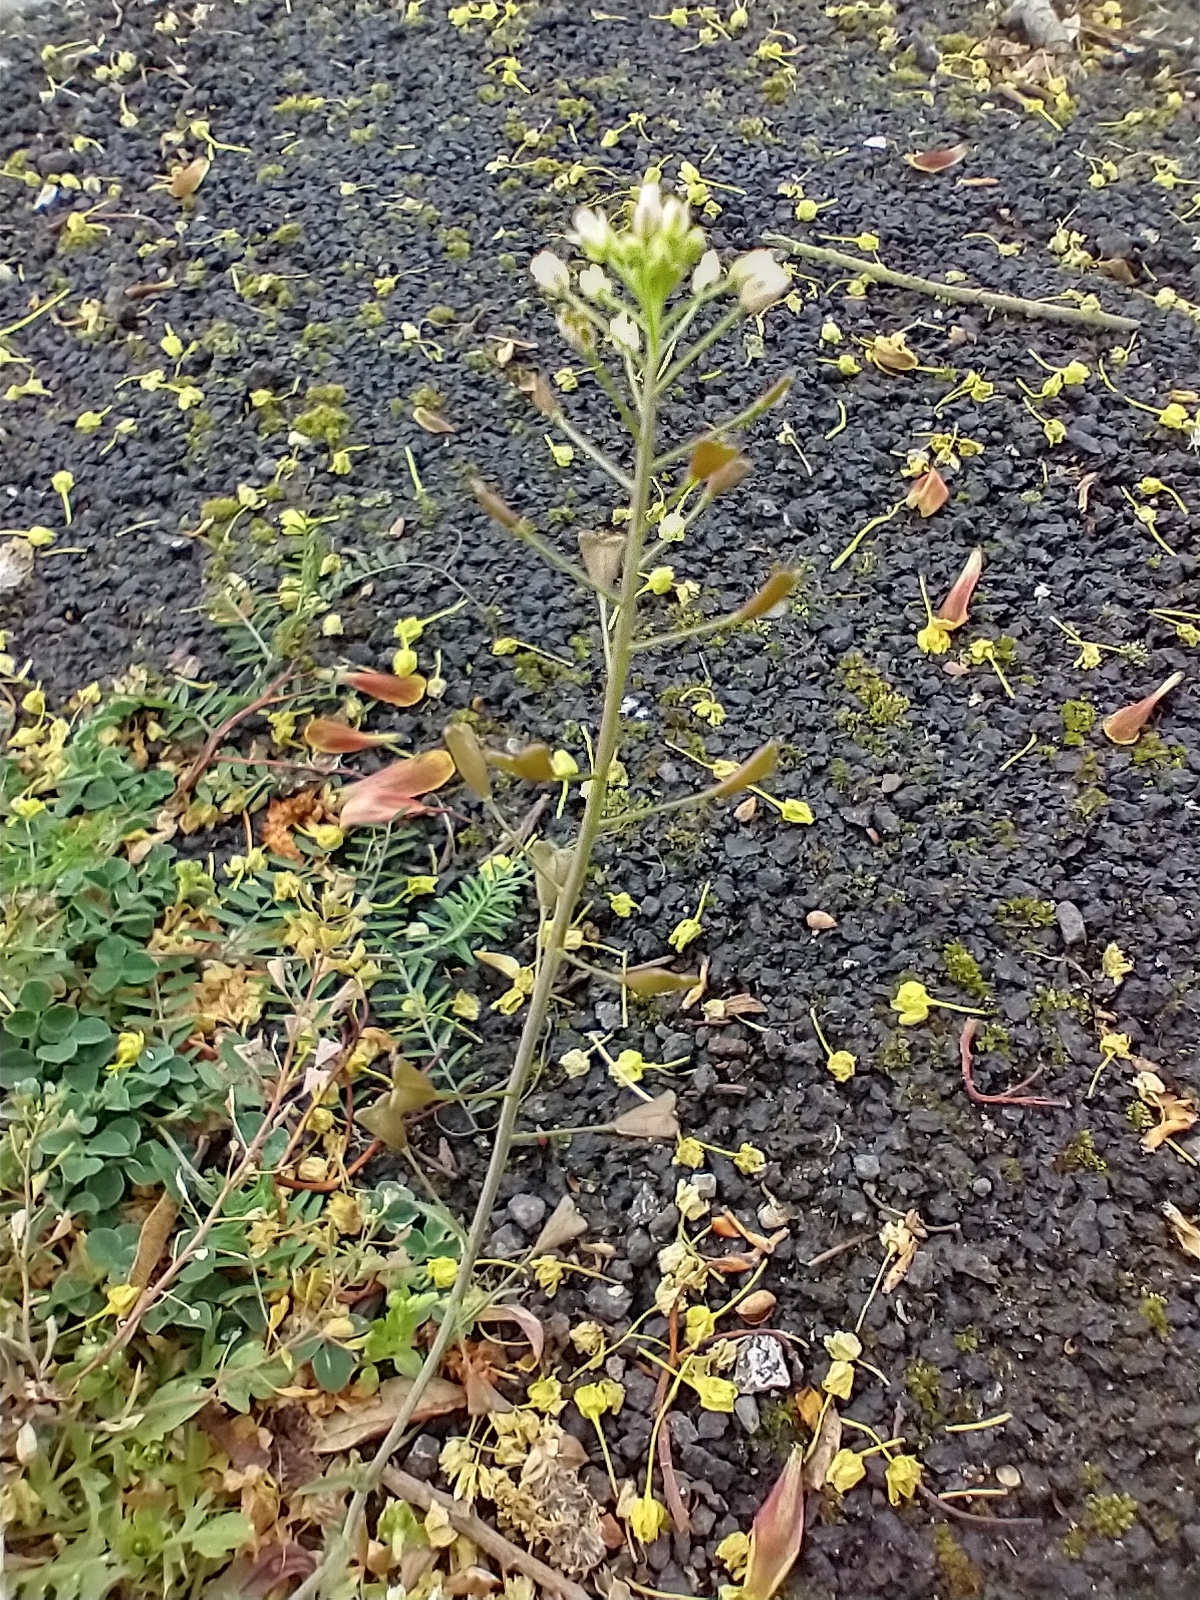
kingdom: Plantae
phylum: Tracheophyta
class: Magnoliopsida
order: Brassicales
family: Brassicaceae
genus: Capsella
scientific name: Capsella bursa-pastoris
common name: Shepherd's purse
